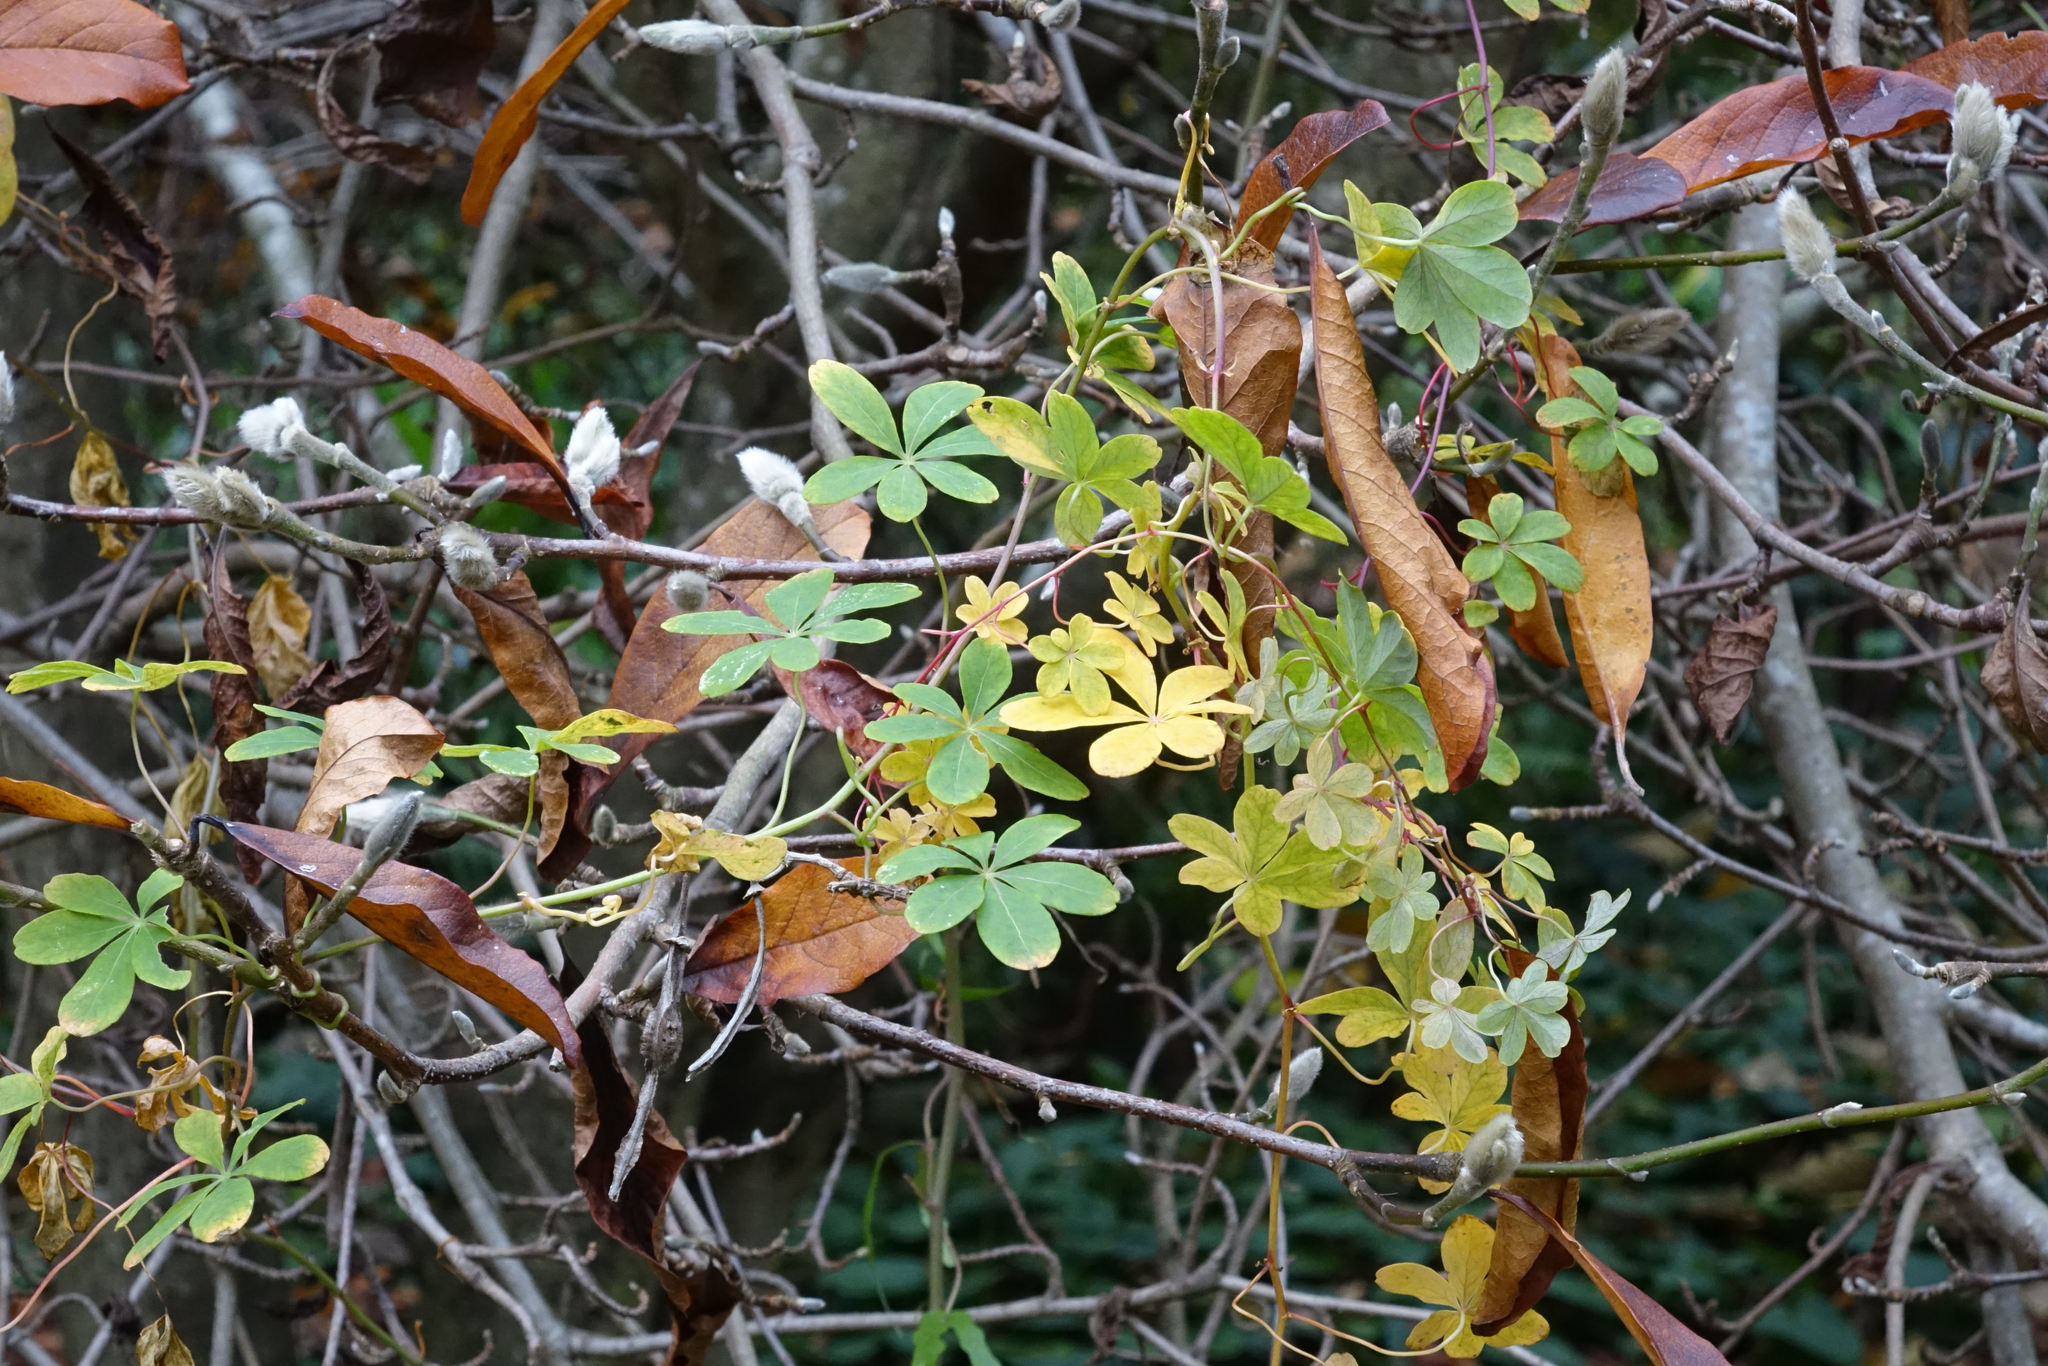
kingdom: Plantae
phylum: Tracheophyta
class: Magnoliopsida
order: Brassicales
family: Tropaeolaceae
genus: Tropaeolum
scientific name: Tropaeolum speciosum
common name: Flame nasturtium
